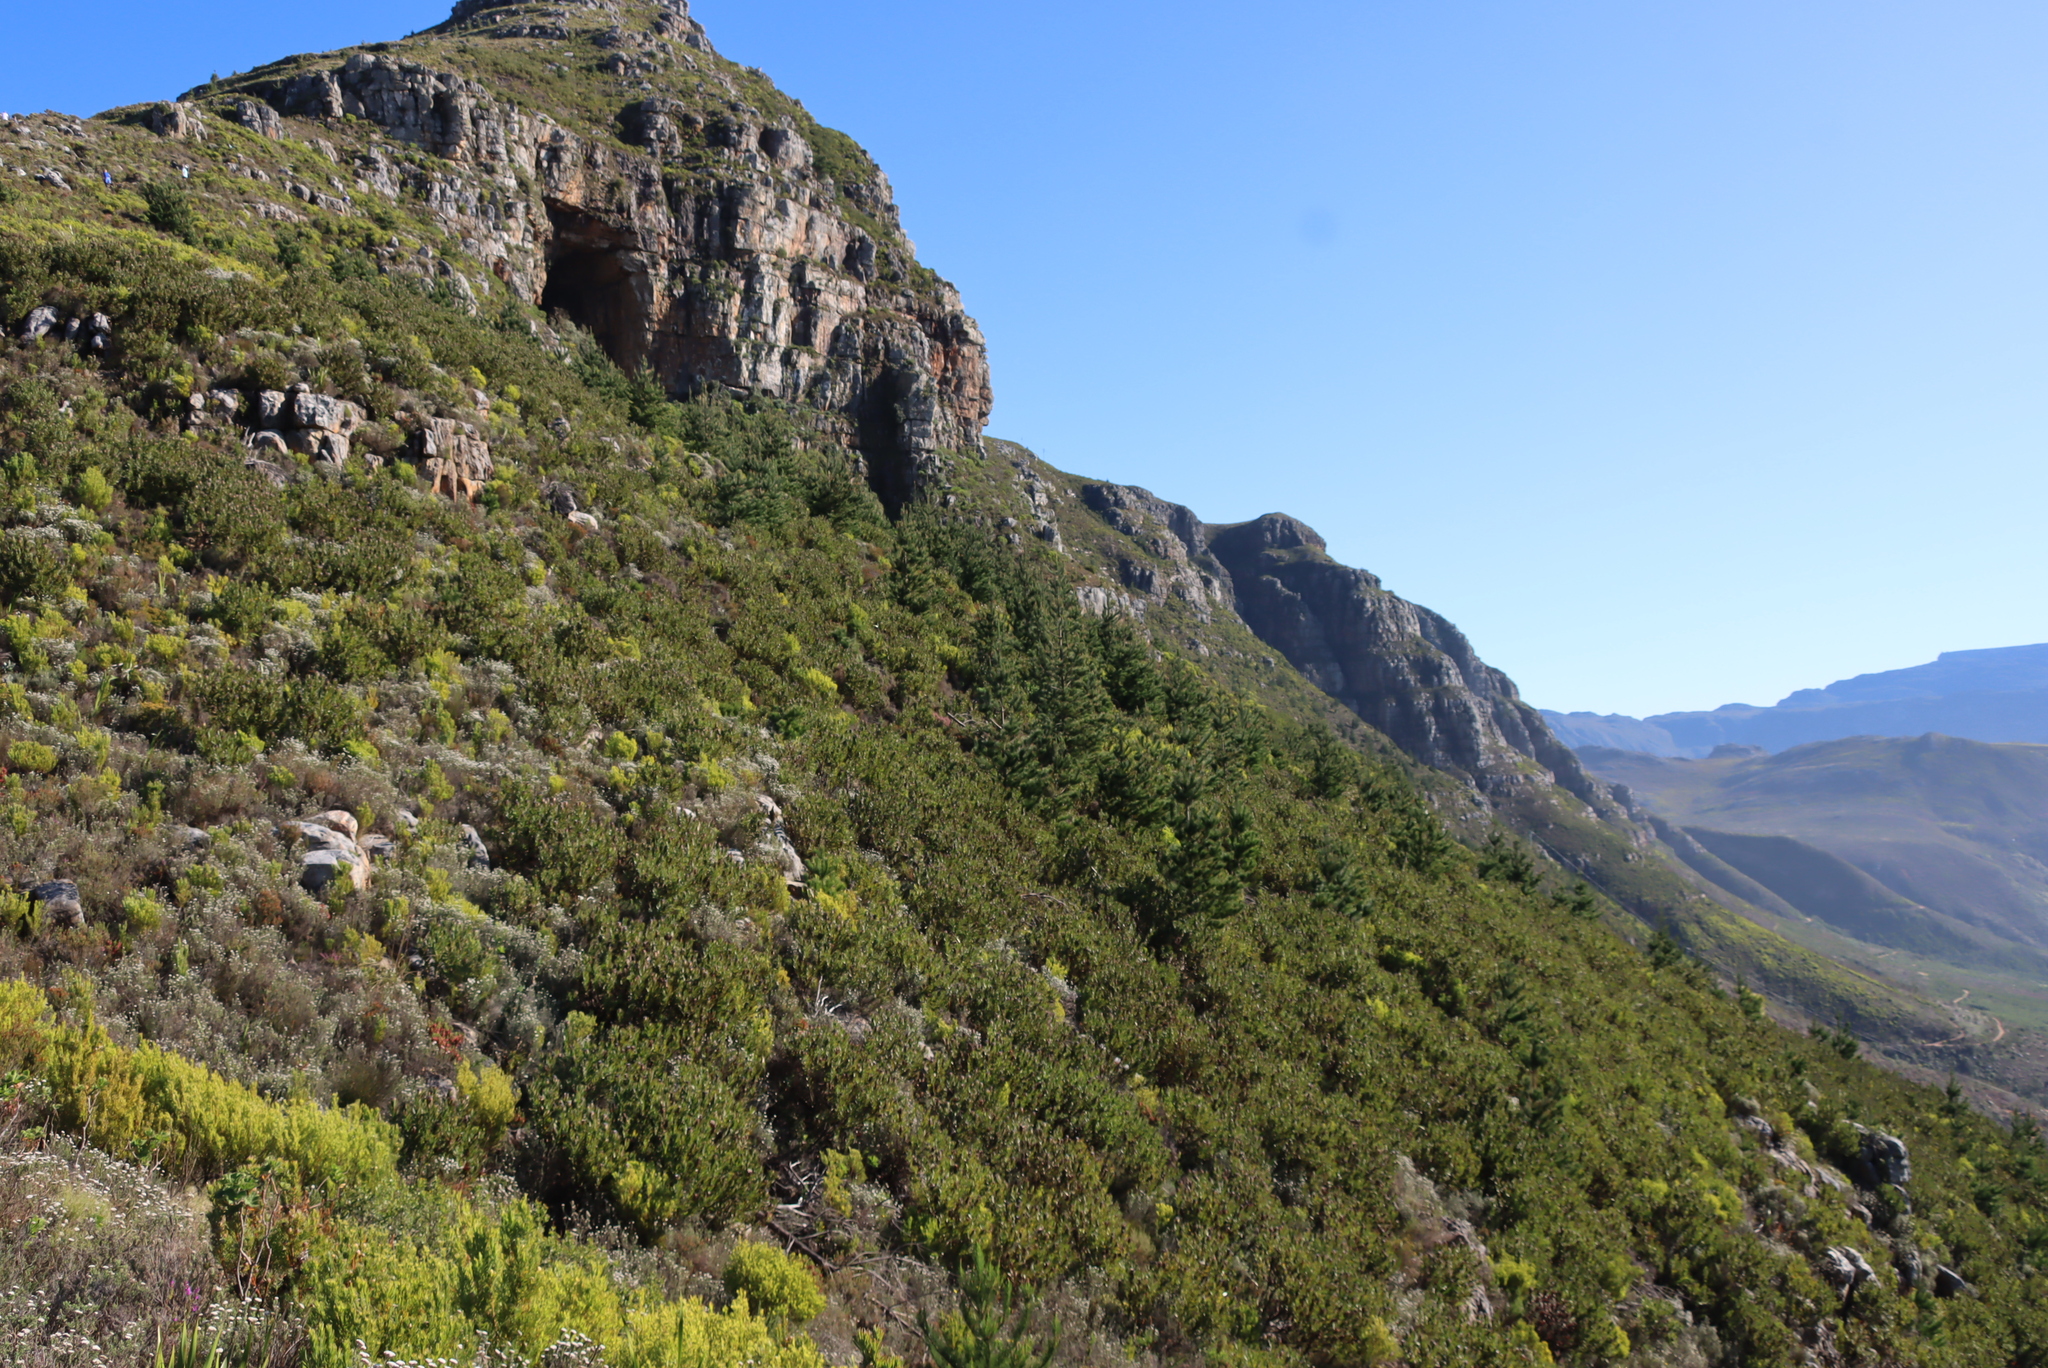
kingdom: Plantae
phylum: Tracheophyta
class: Pinopsida
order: Pinales
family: Pinaceae
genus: Pinus
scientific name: Pinus radiata
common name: Monterey pine
